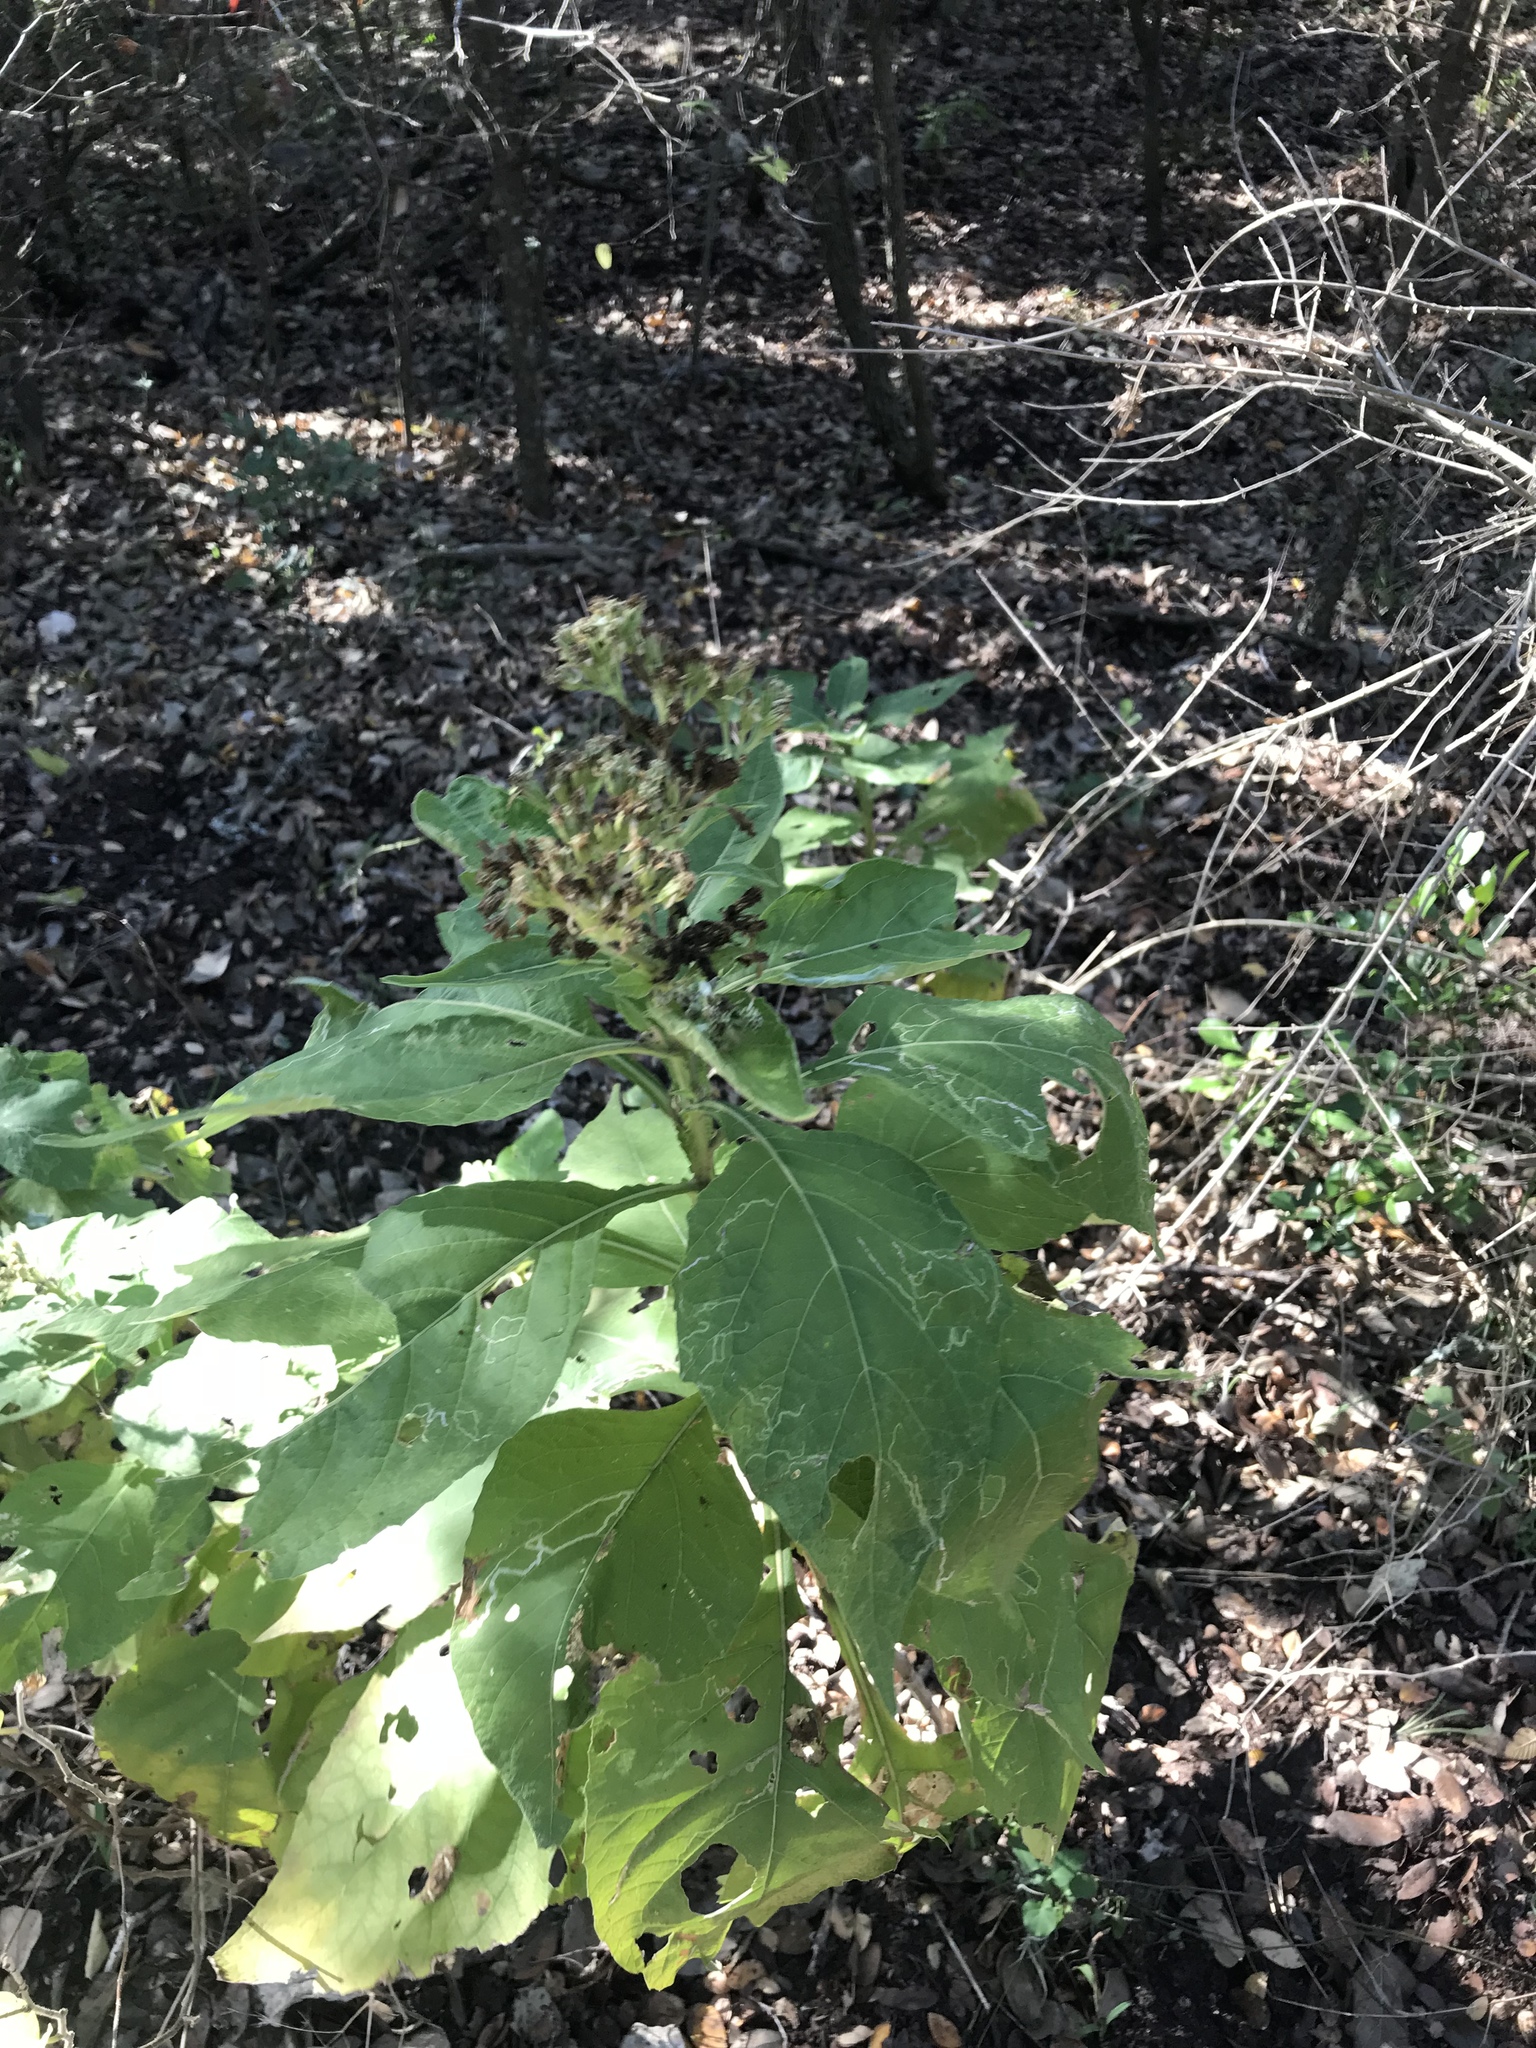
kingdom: Plantae
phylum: Tracheophyta
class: Magnoliopsida
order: Asterales
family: Asteraceae
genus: Verbesina
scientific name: Verbesina virginica
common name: Frostweed
